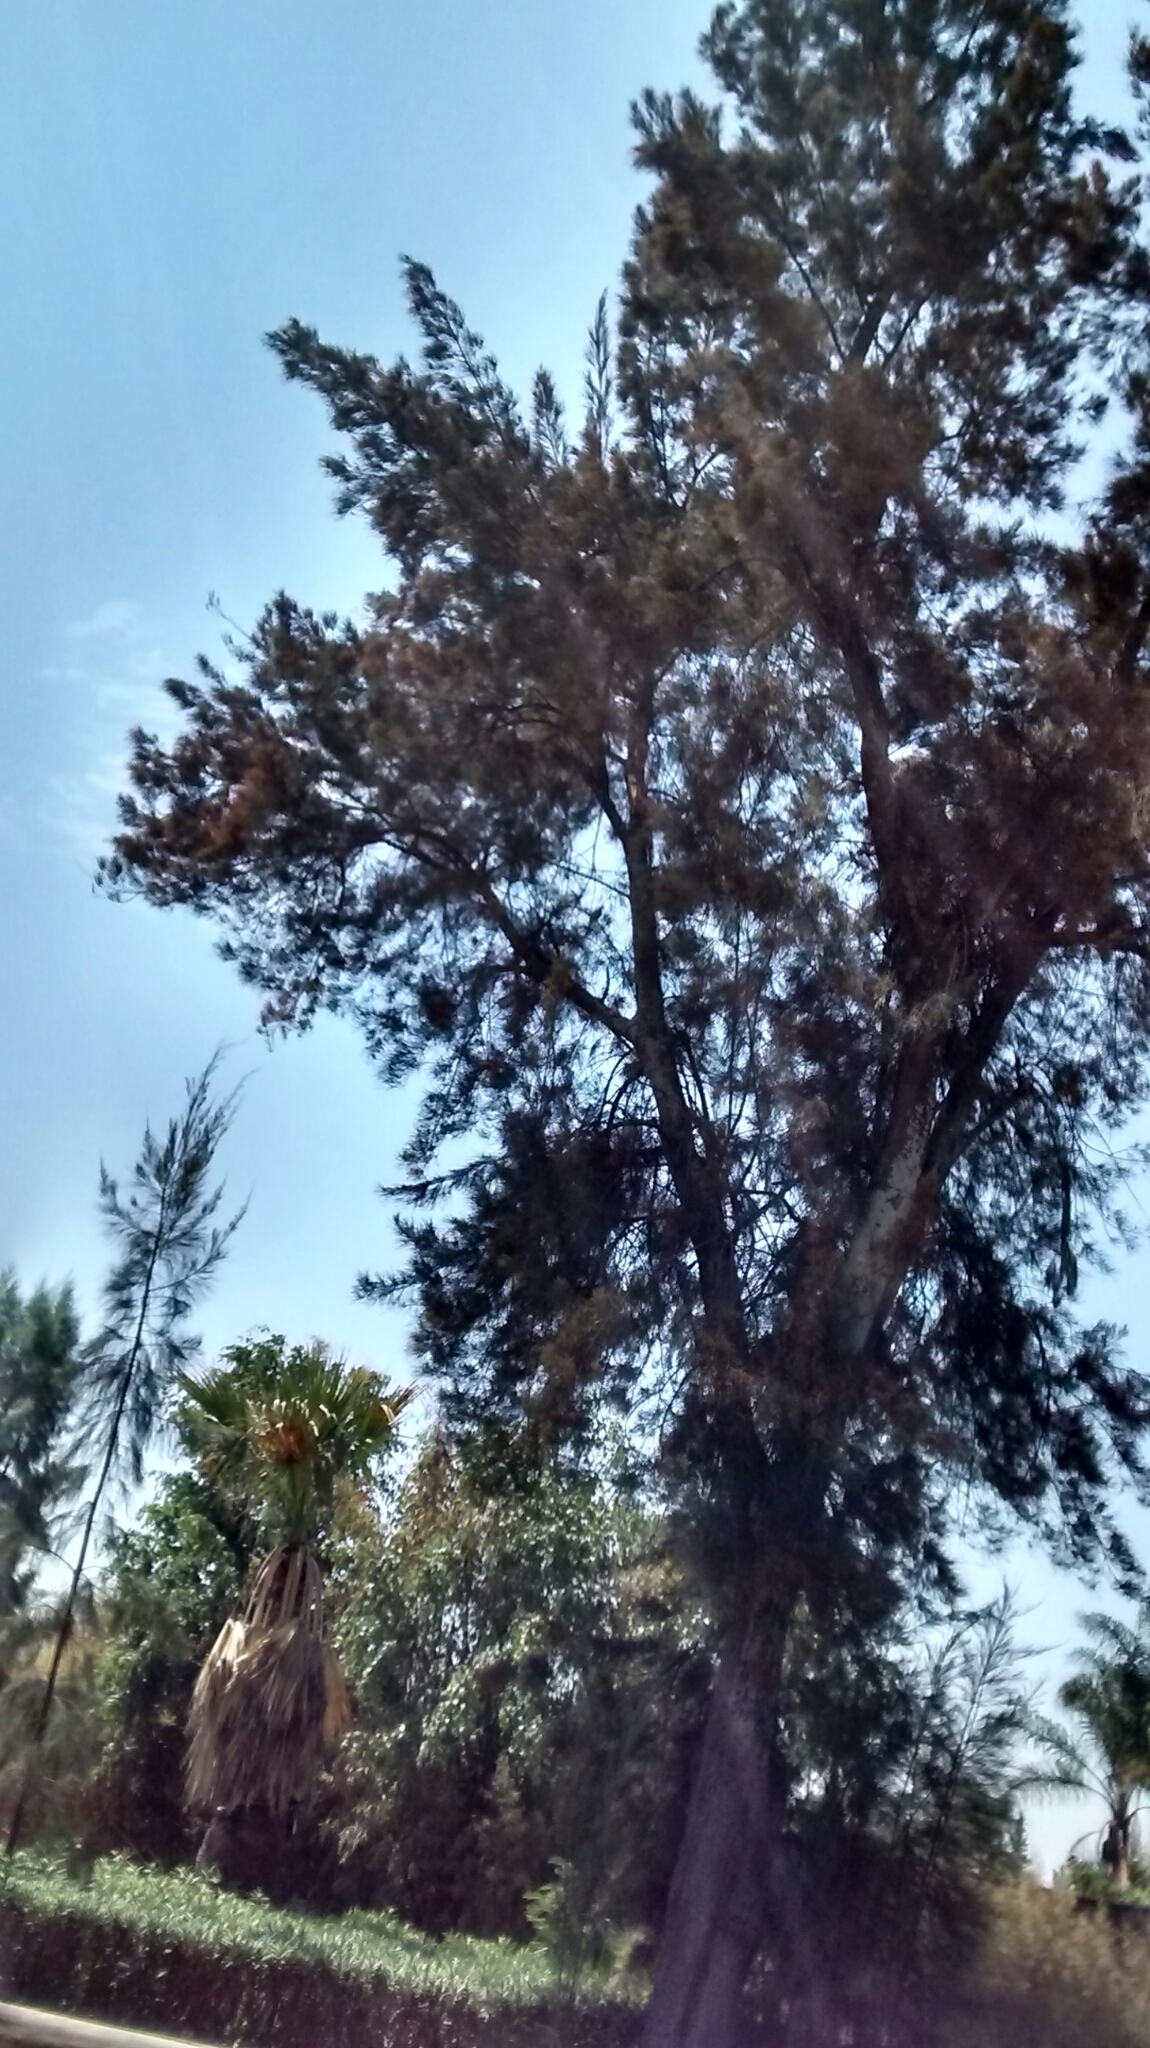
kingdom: Animalia
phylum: Chordata
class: Aves
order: Passeriformes
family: Corvidae
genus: Calocitta
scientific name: Calocitta formosa
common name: White-throated magpie-jay
